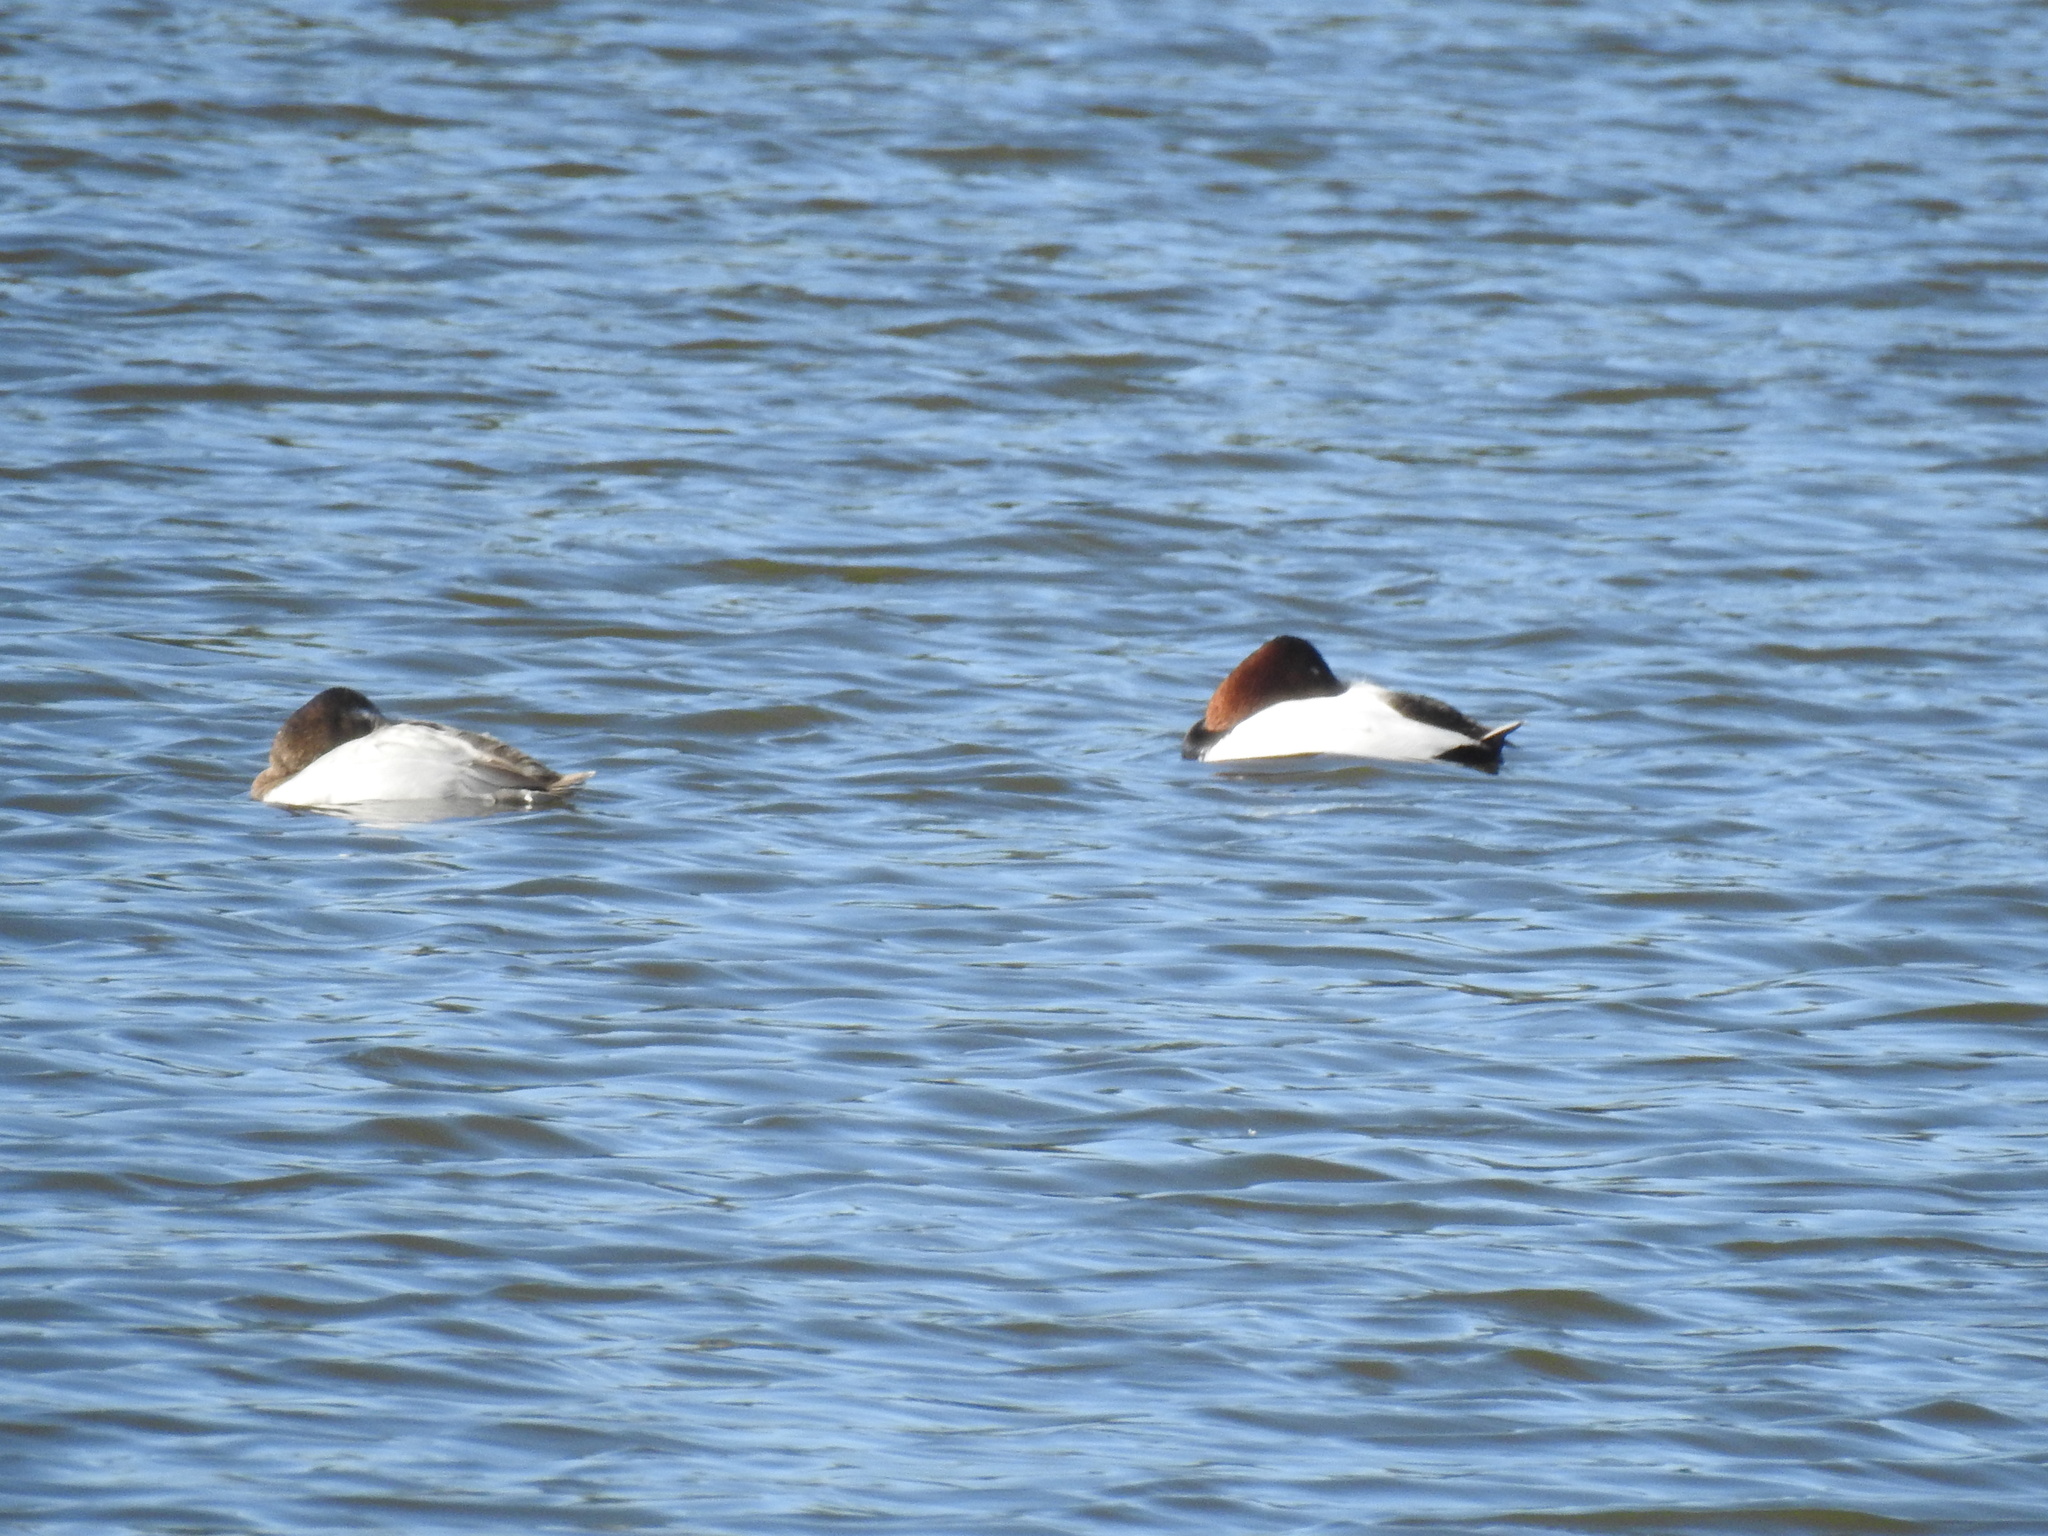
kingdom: Animalia
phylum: Chordata
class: Aves
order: Anseriformes
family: Anatidae
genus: Aythya
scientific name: Aythya valisineria
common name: Canvasback
